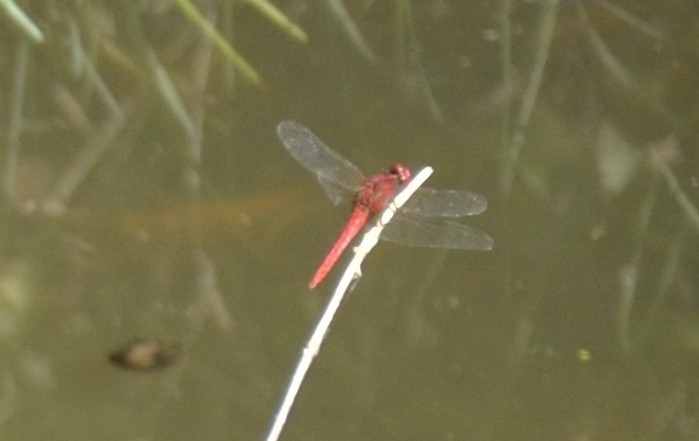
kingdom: Animalia
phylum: Arthropoda
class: Insecta
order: Odonata
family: Libellulidae
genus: Crocothemis
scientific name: Crocothemis servilia
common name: Scarlet skimmer
